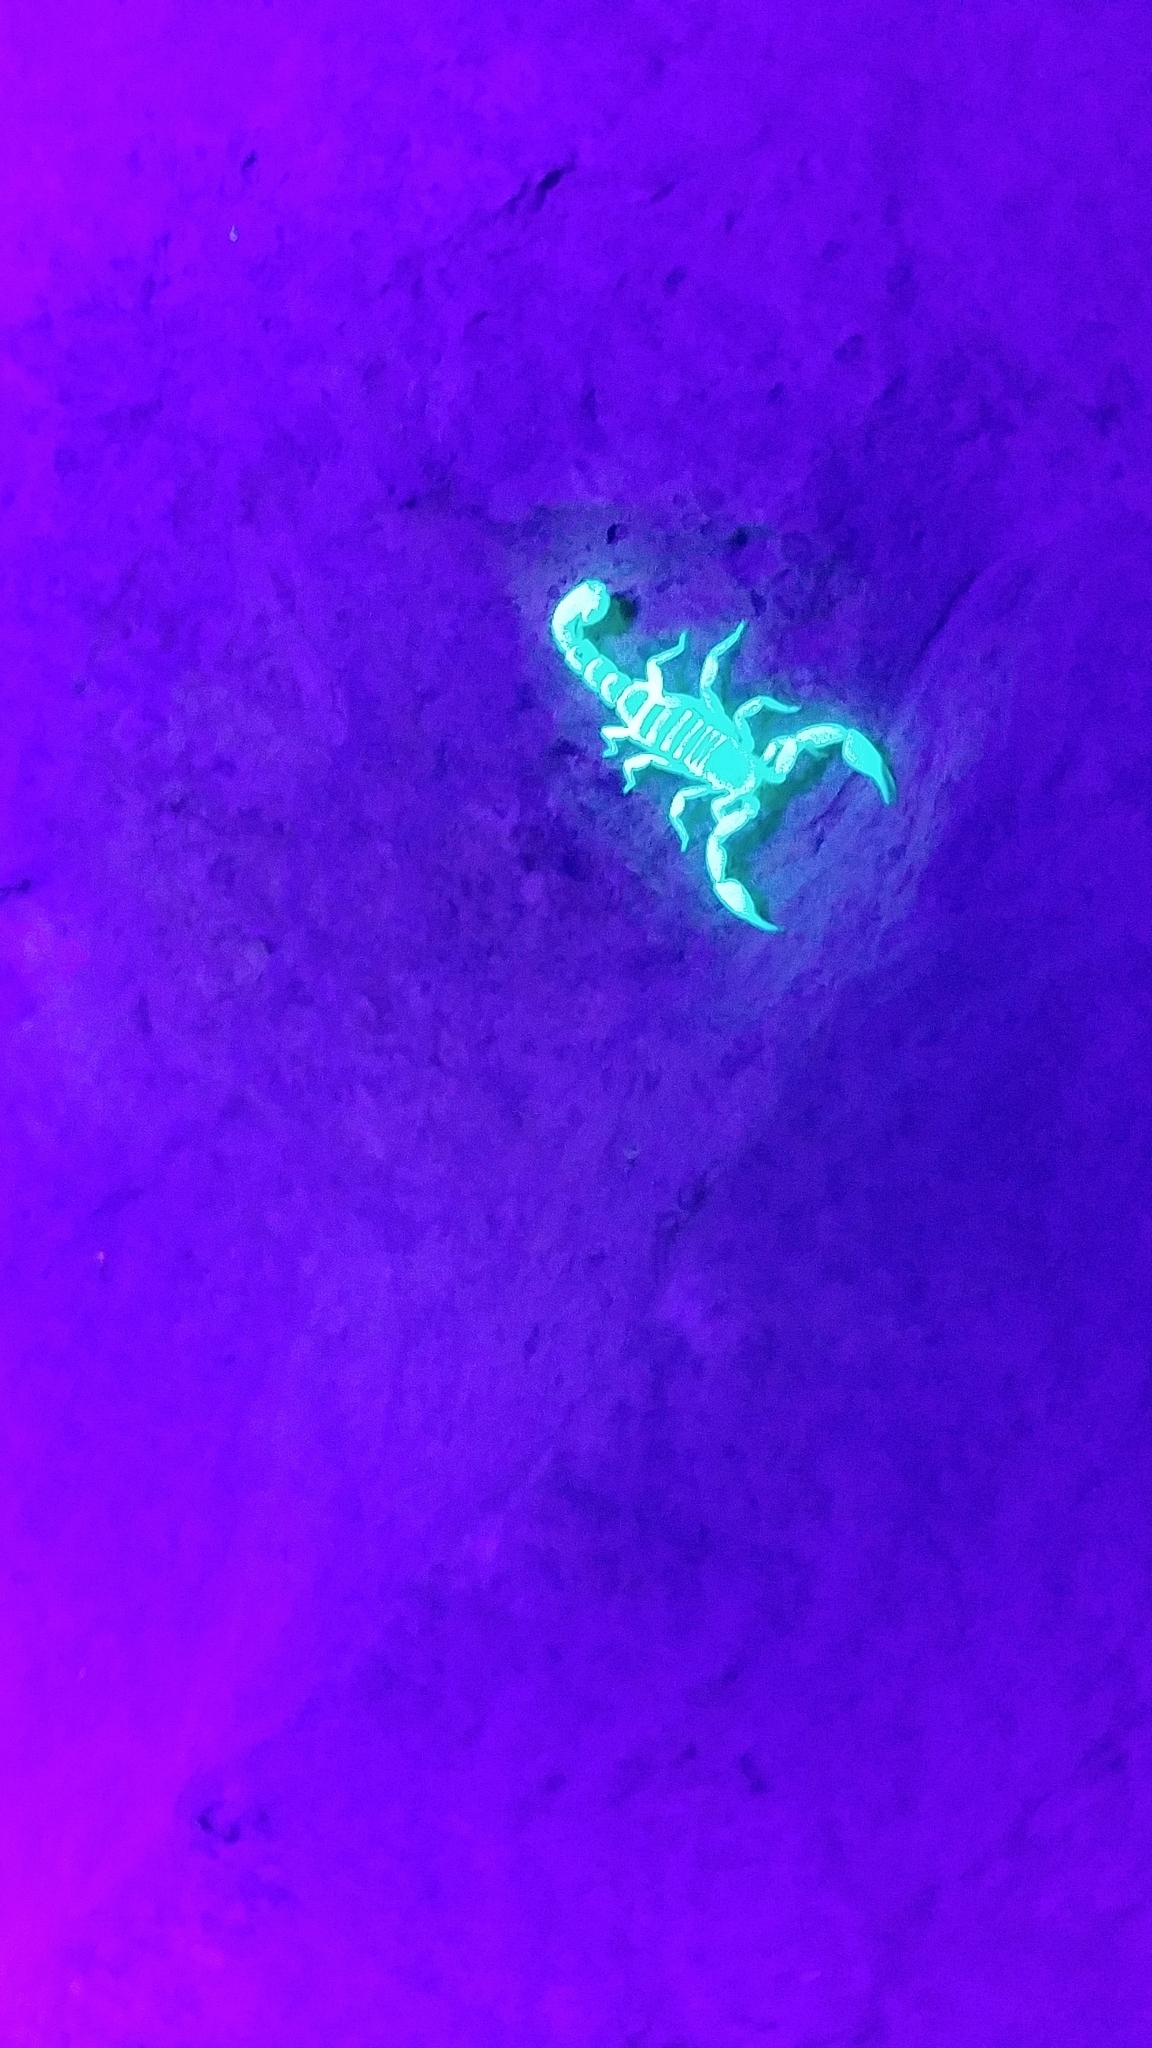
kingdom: Animalia
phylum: Arthropoda
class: Arachnida
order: Scorpiones
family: Vaejovidae
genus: Catalinia
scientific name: Catalinia andreas
